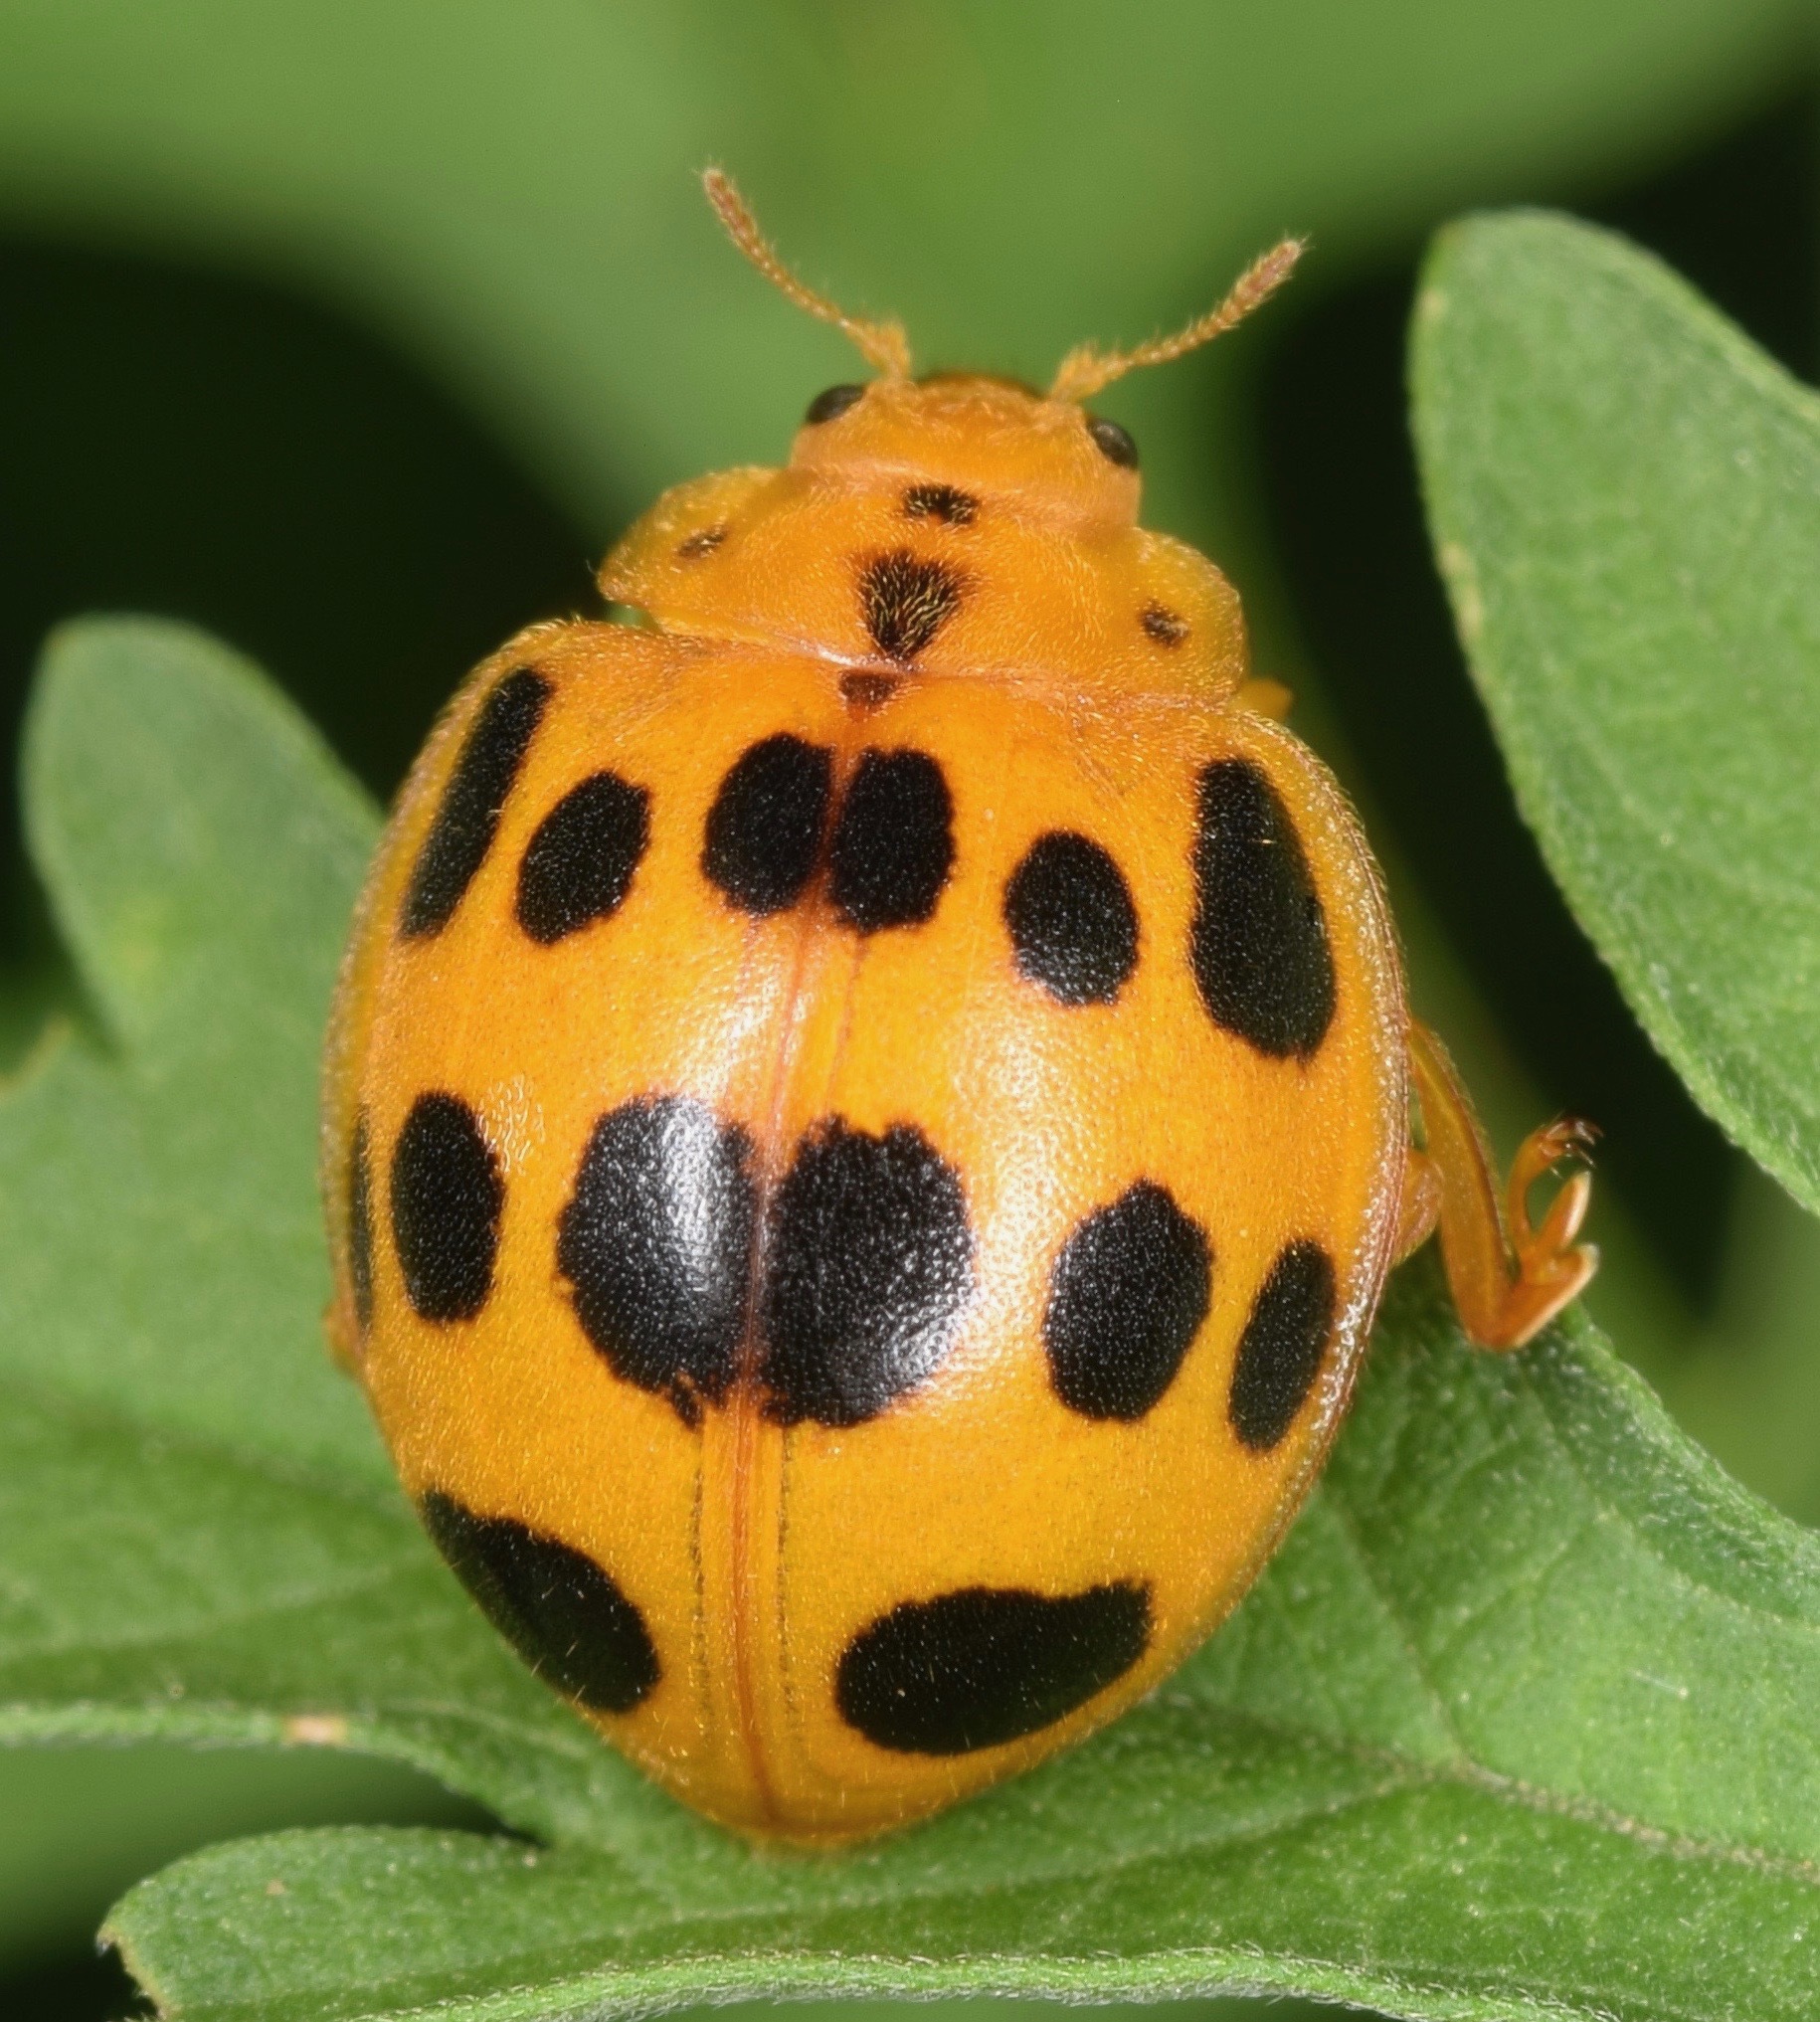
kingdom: Animalia
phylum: Arthropoda
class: Insecta
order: Coleoptera
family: Coccinellidae
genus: Epilachna
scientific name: Epilachna borealis
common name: Squash beetle
